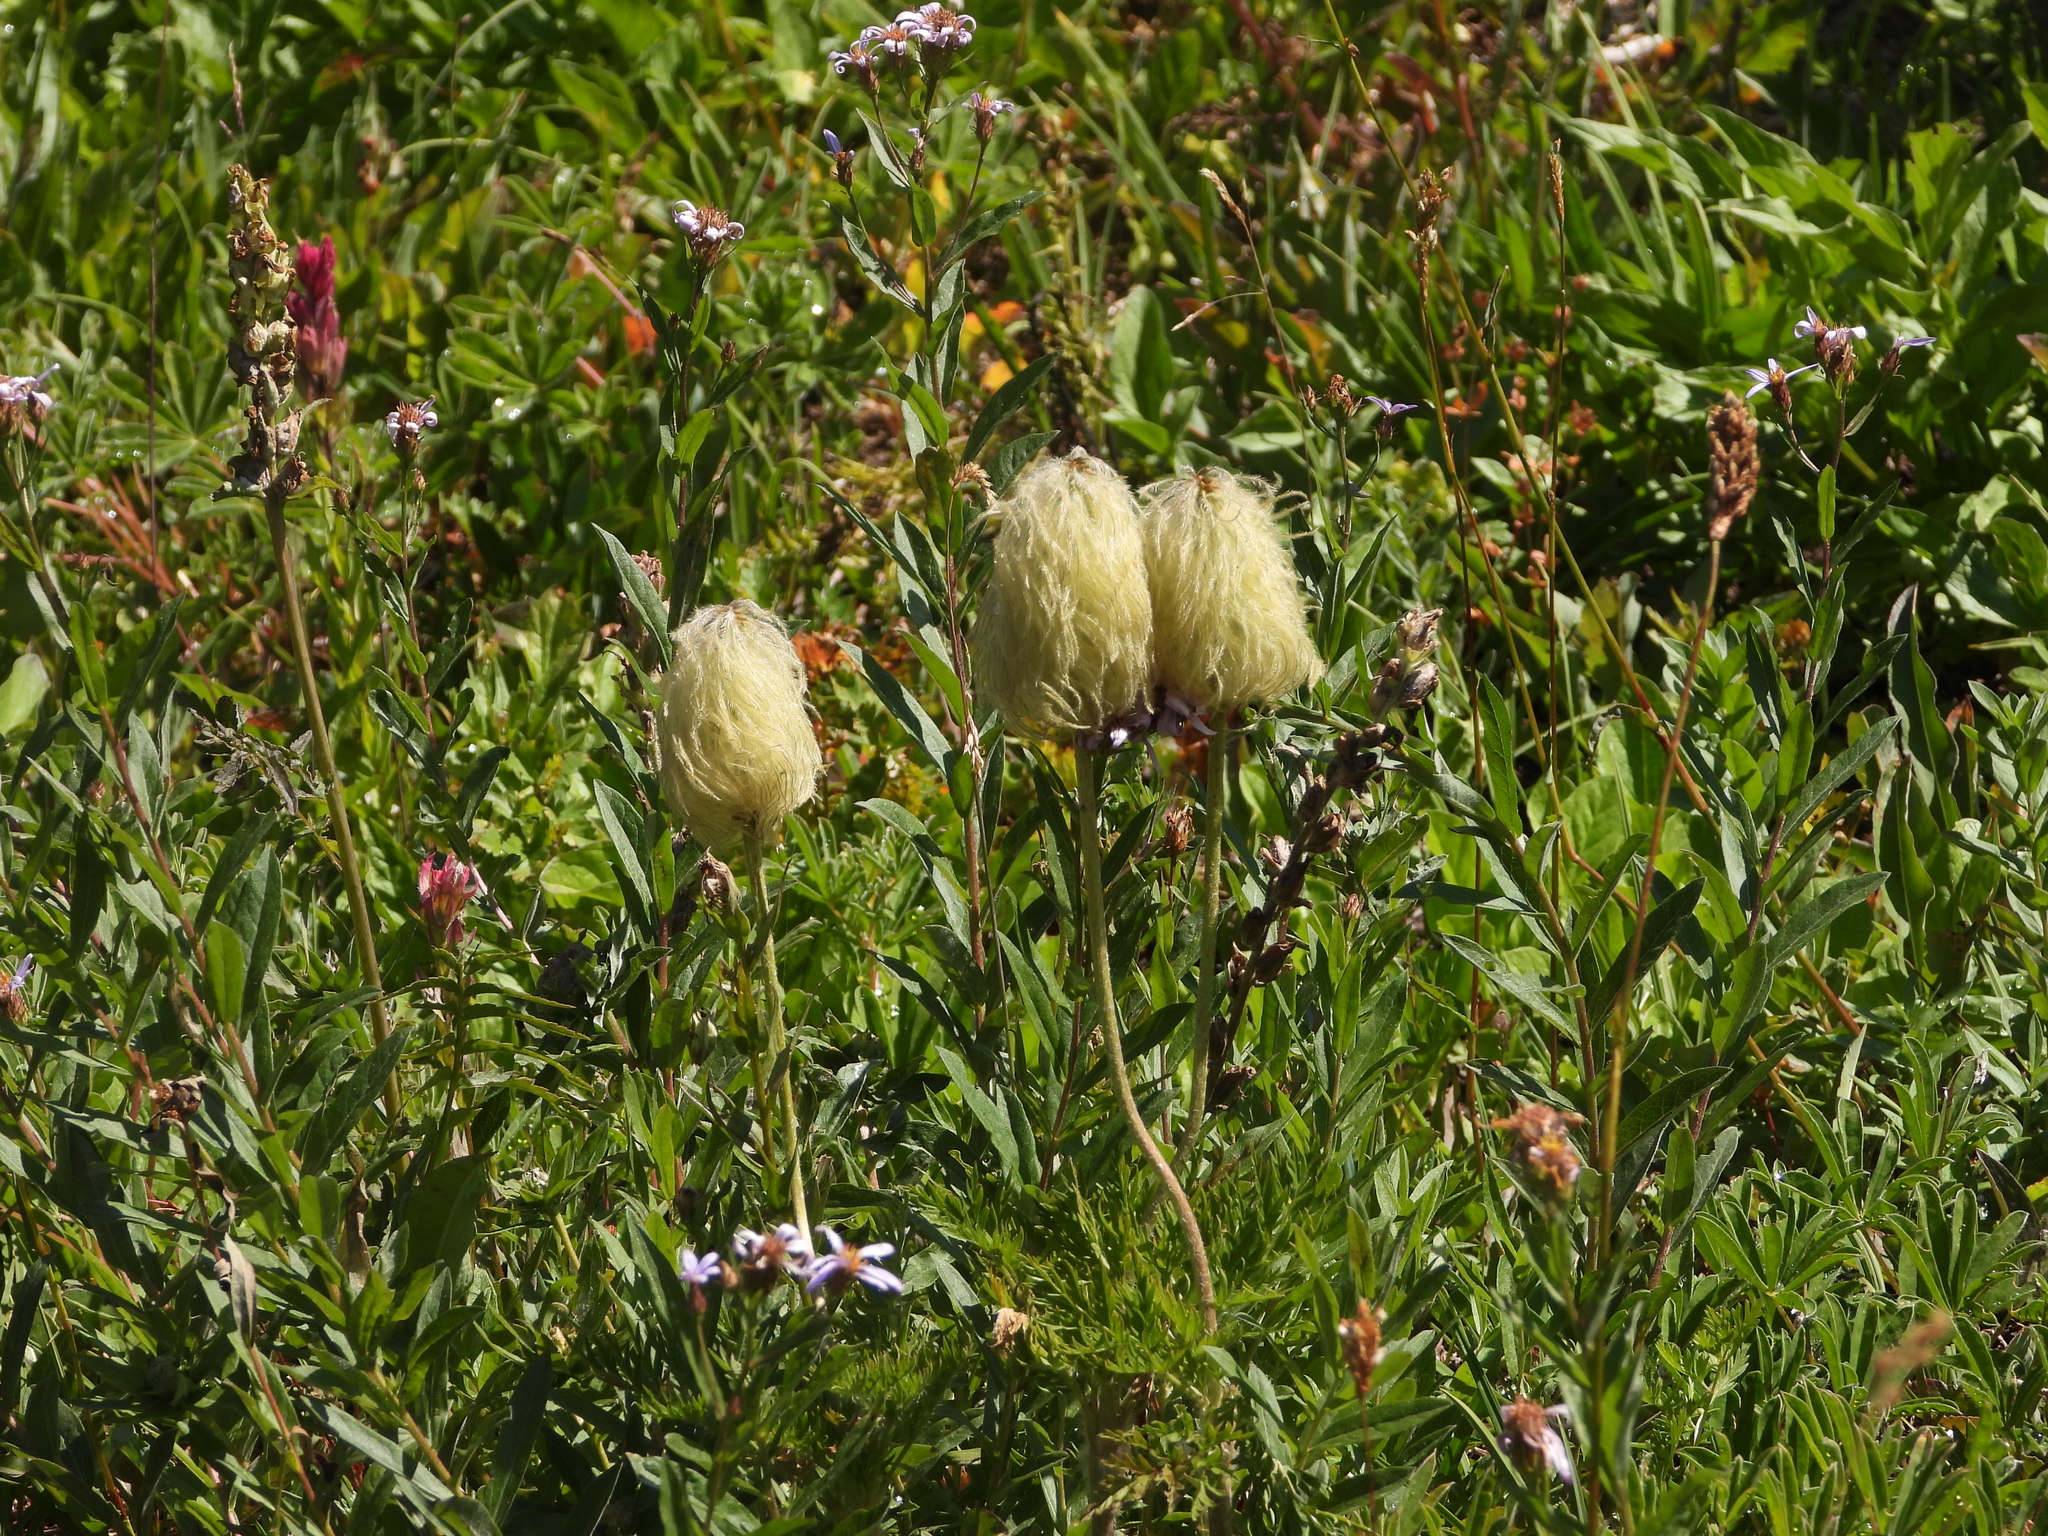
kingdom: Plantae
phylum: Tracheophyta
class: Magnoliopsida
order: Ranunculales
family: Ranunculaceae
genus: Pulsatilla
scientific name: Pulsatilla occidentalis
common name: Mountain pasqueflower
